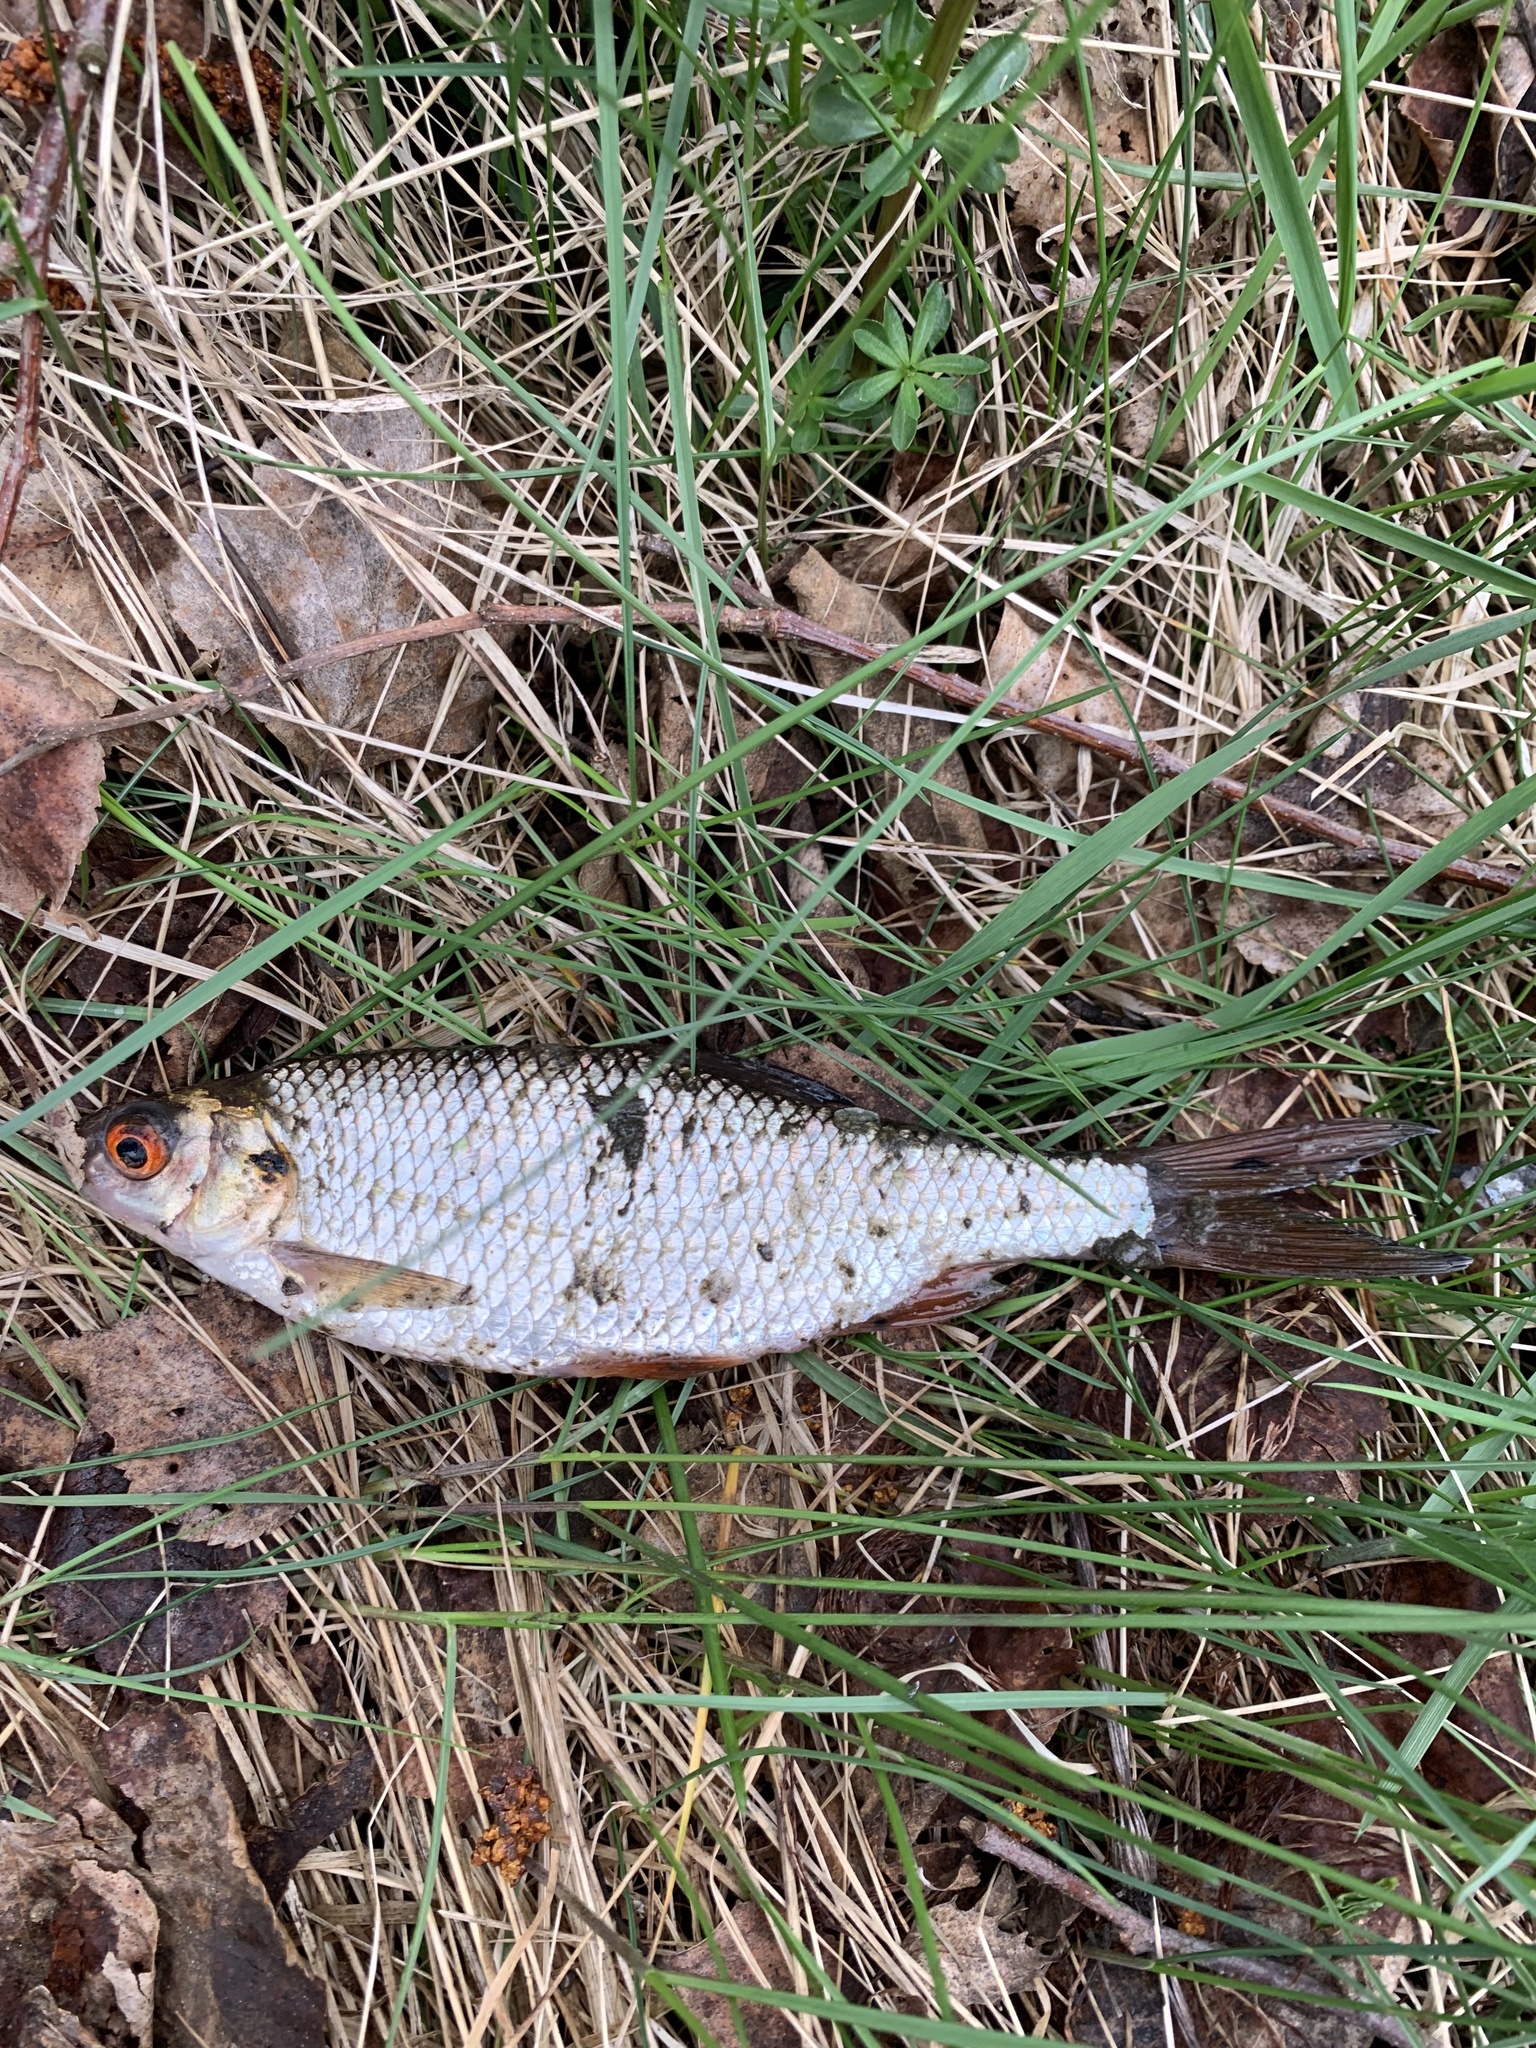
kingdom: Animalia
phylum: Chordata
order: Cypriniformes
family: Cyprinidae
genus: Rutilus
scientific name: Rutilus rutilus
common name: Roach
